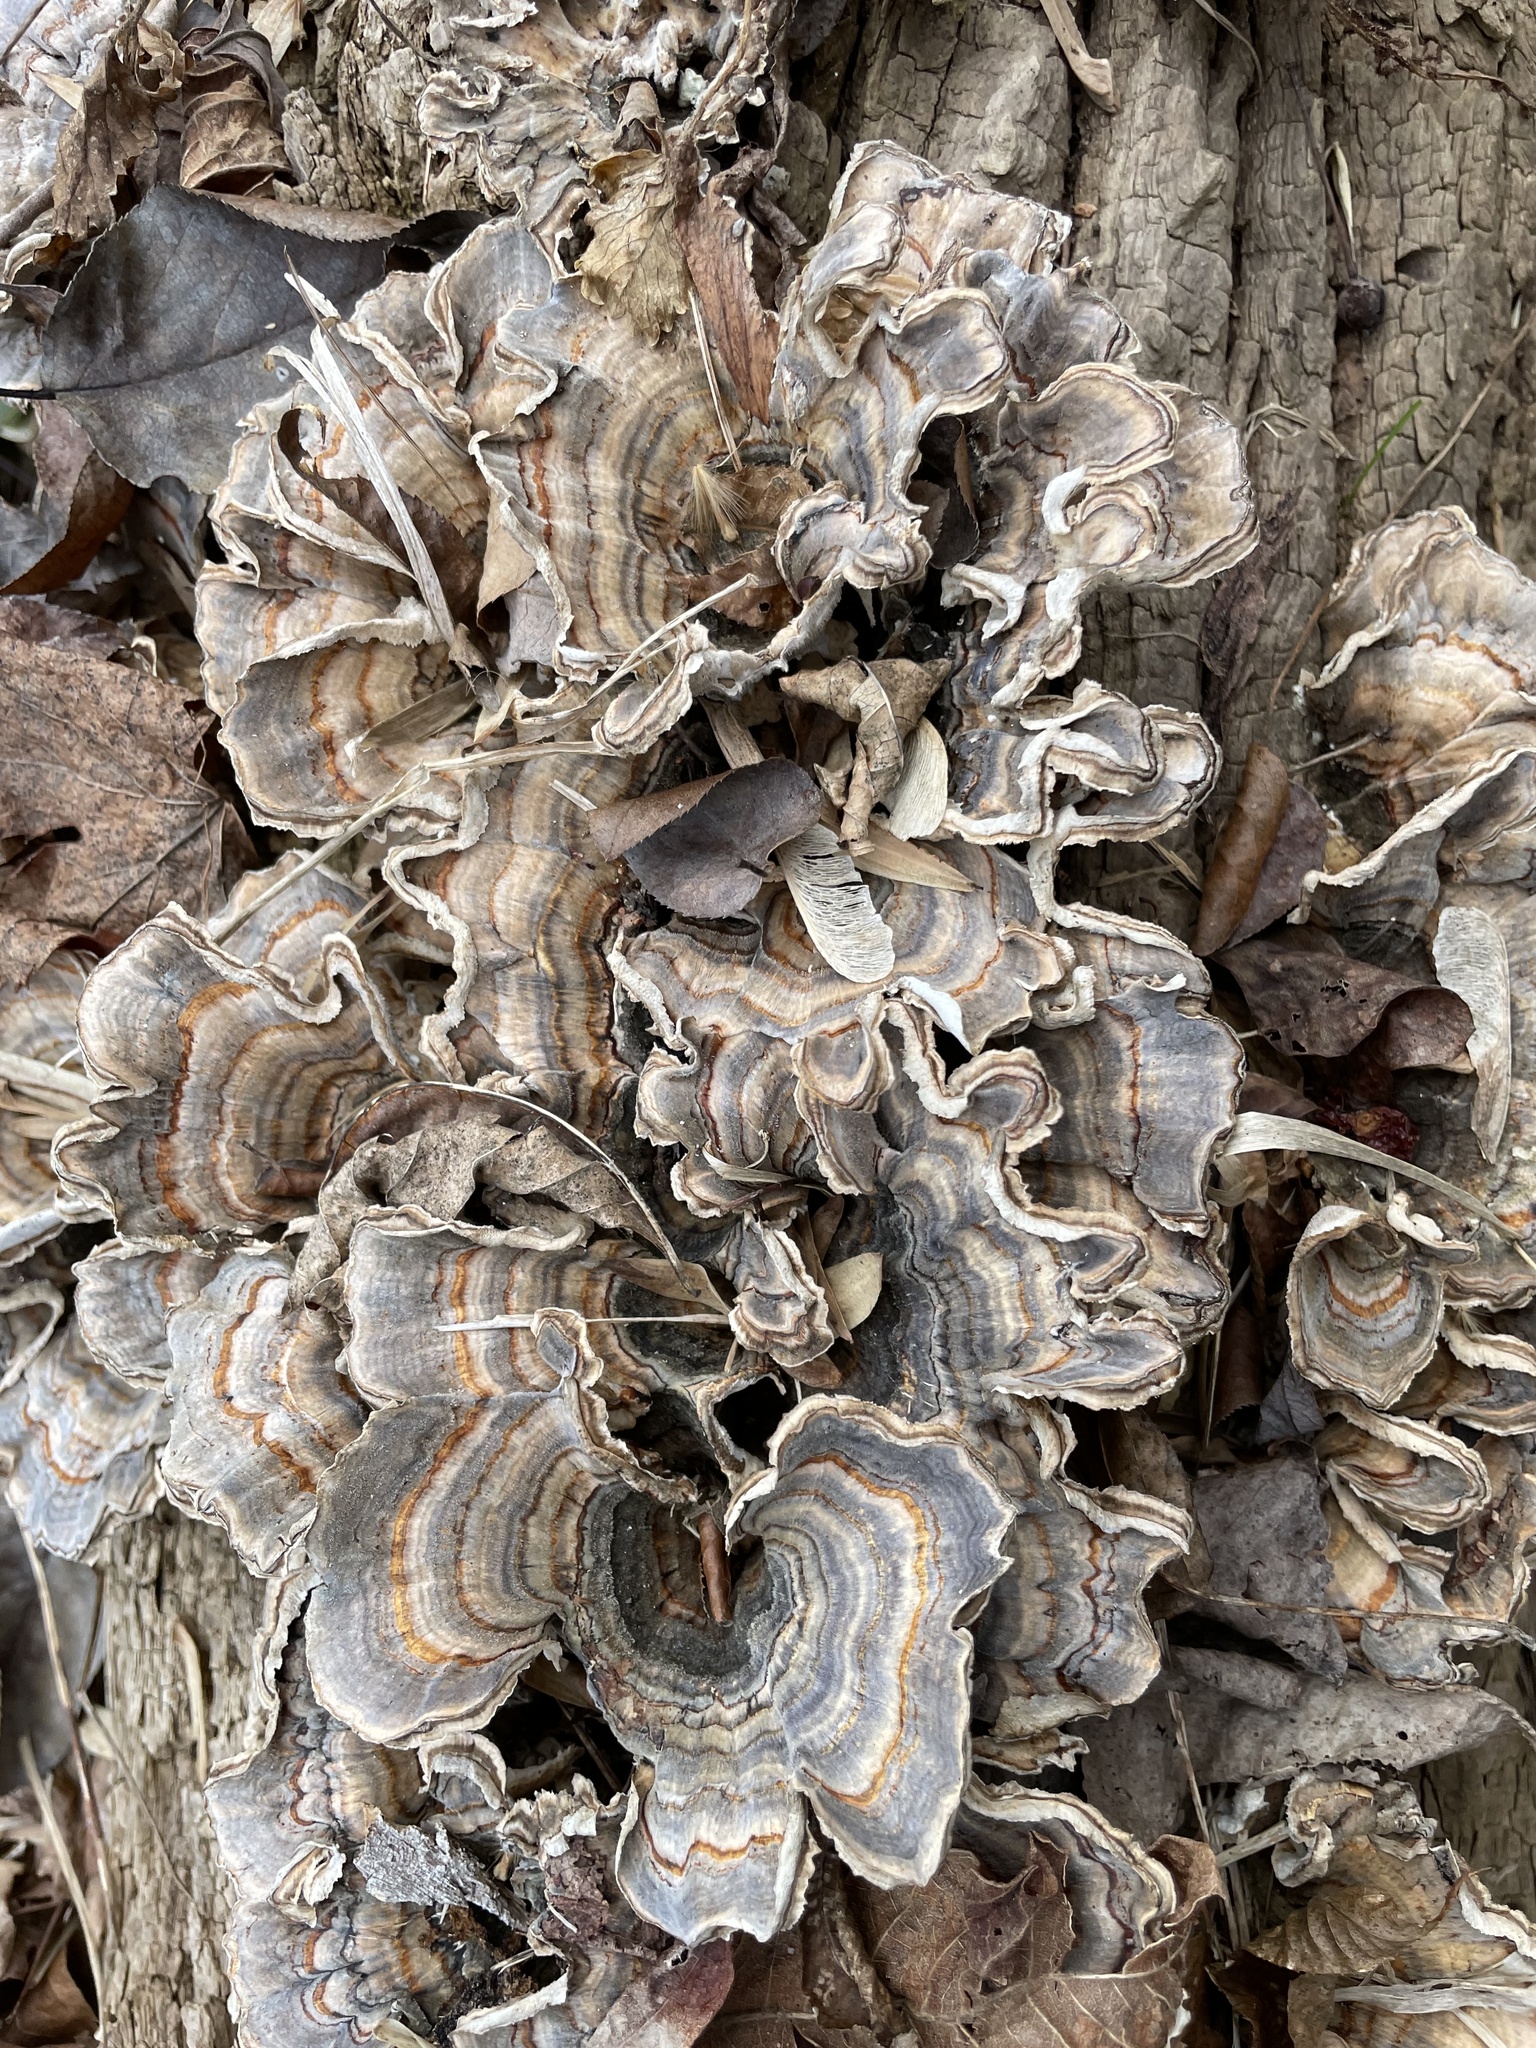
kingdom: Fungi
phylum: Basidiomycota
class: Agaricomycetes
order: Polyporales
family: Polyporaceae
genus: Trametes
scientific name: Trametes versicolor
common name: Turkeytail
